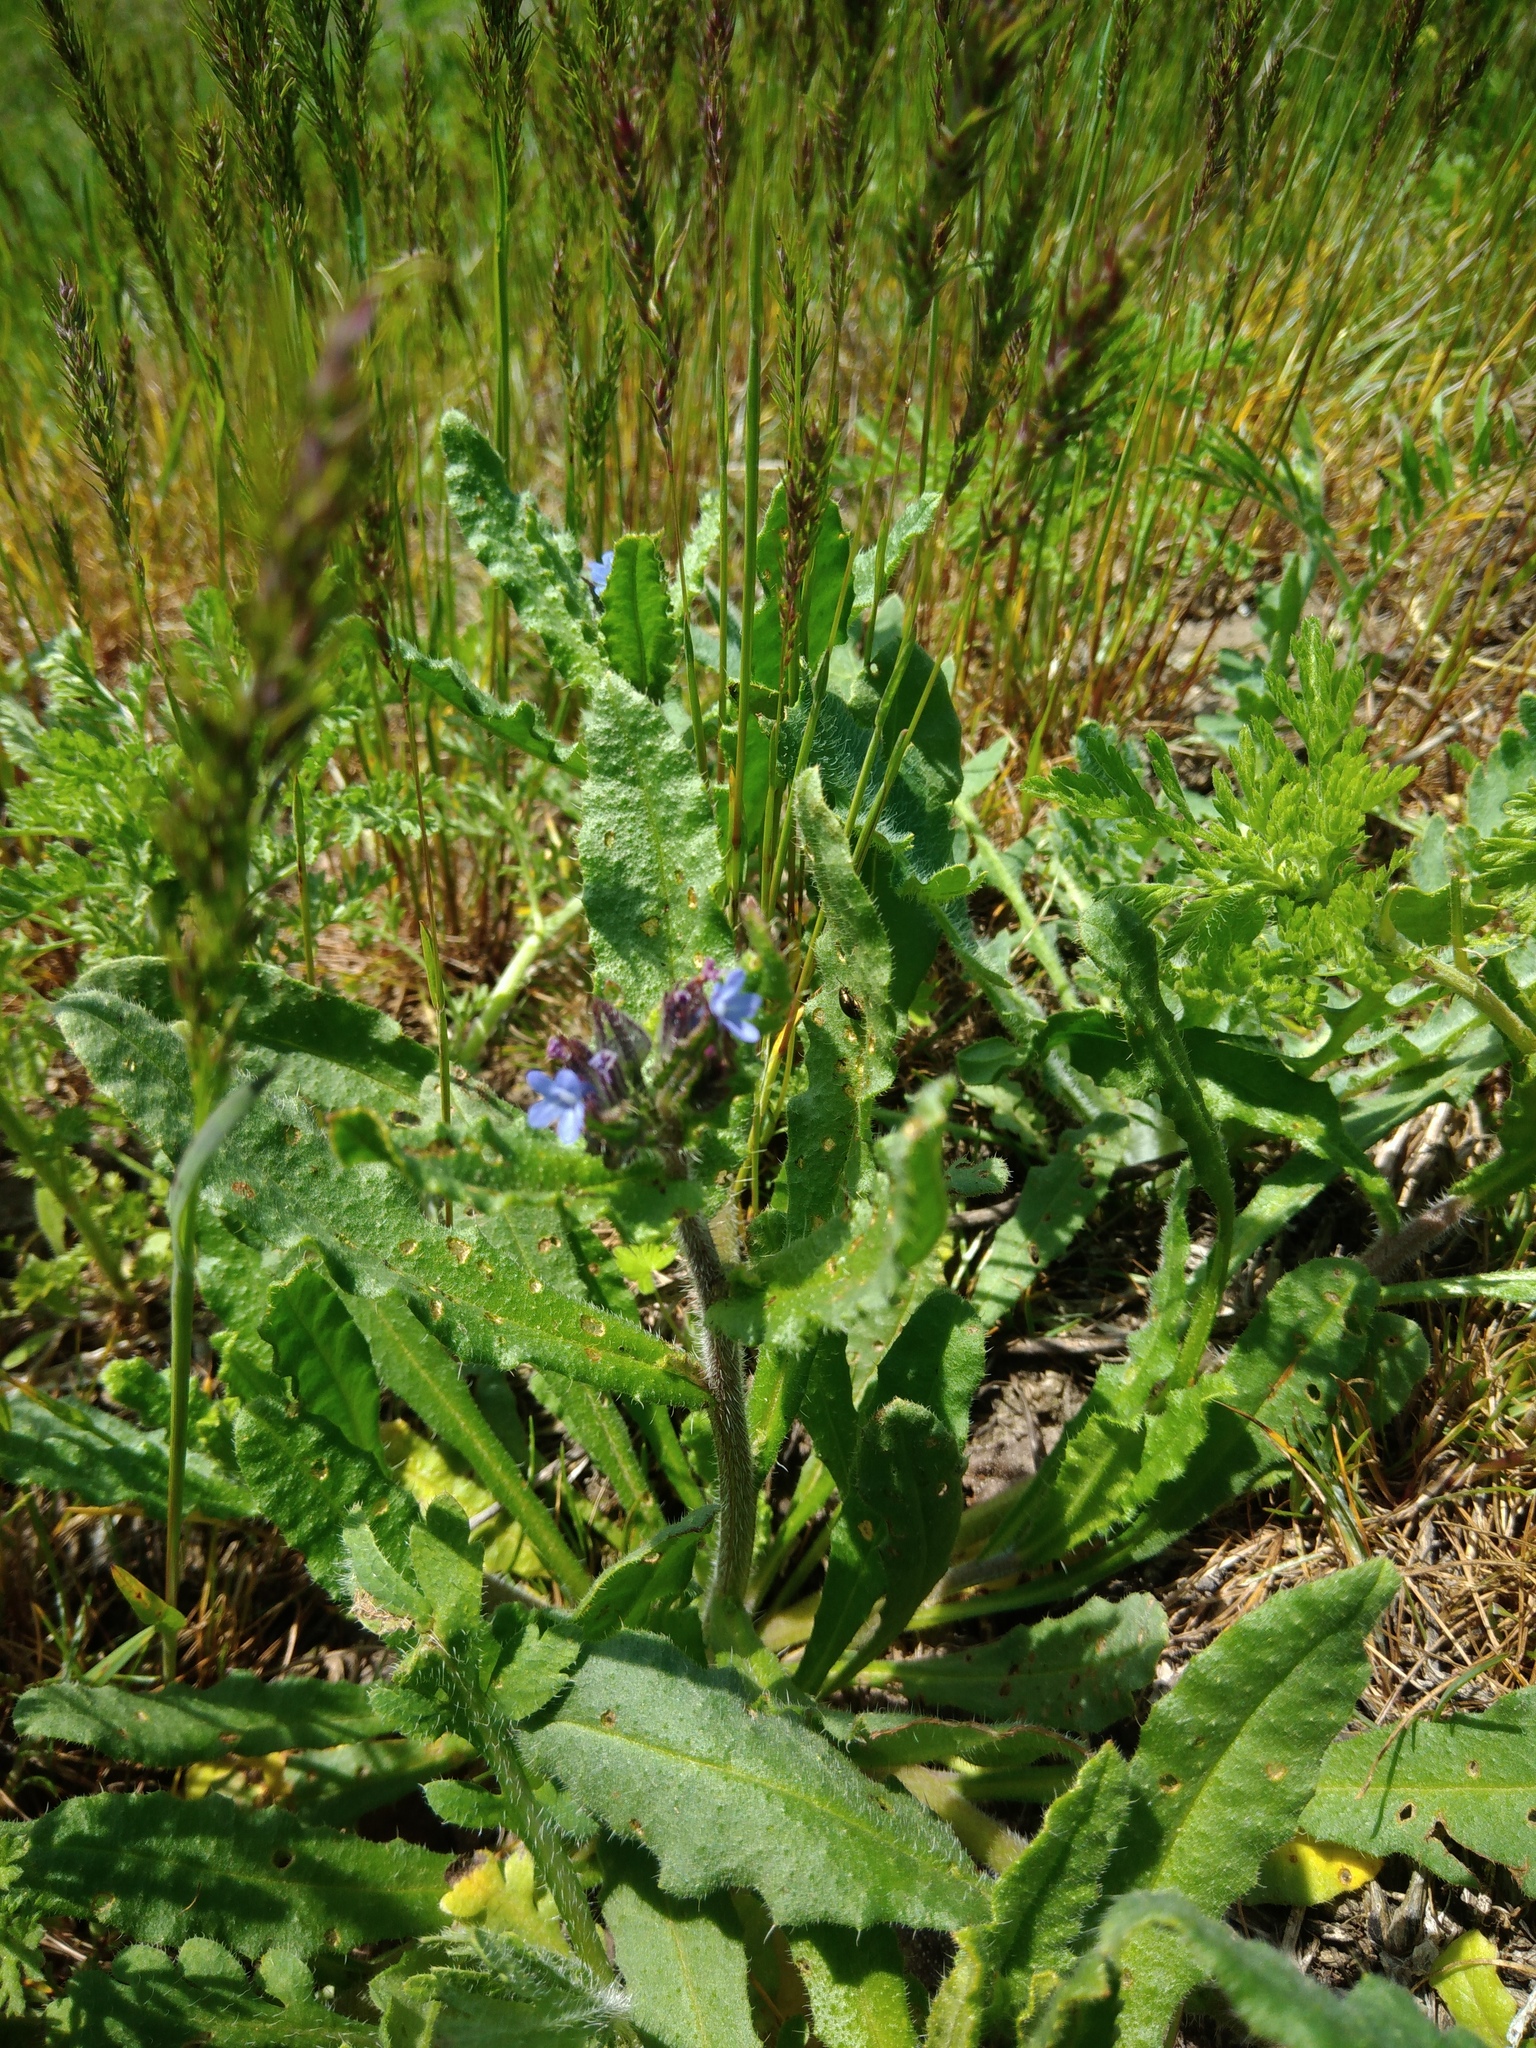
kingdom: Plantae
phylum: Tracheophyta
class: Magnoliopsida
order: Boraginales
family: Boraginaceae
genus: Lycopsis
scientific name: Lycopsis arvensis
